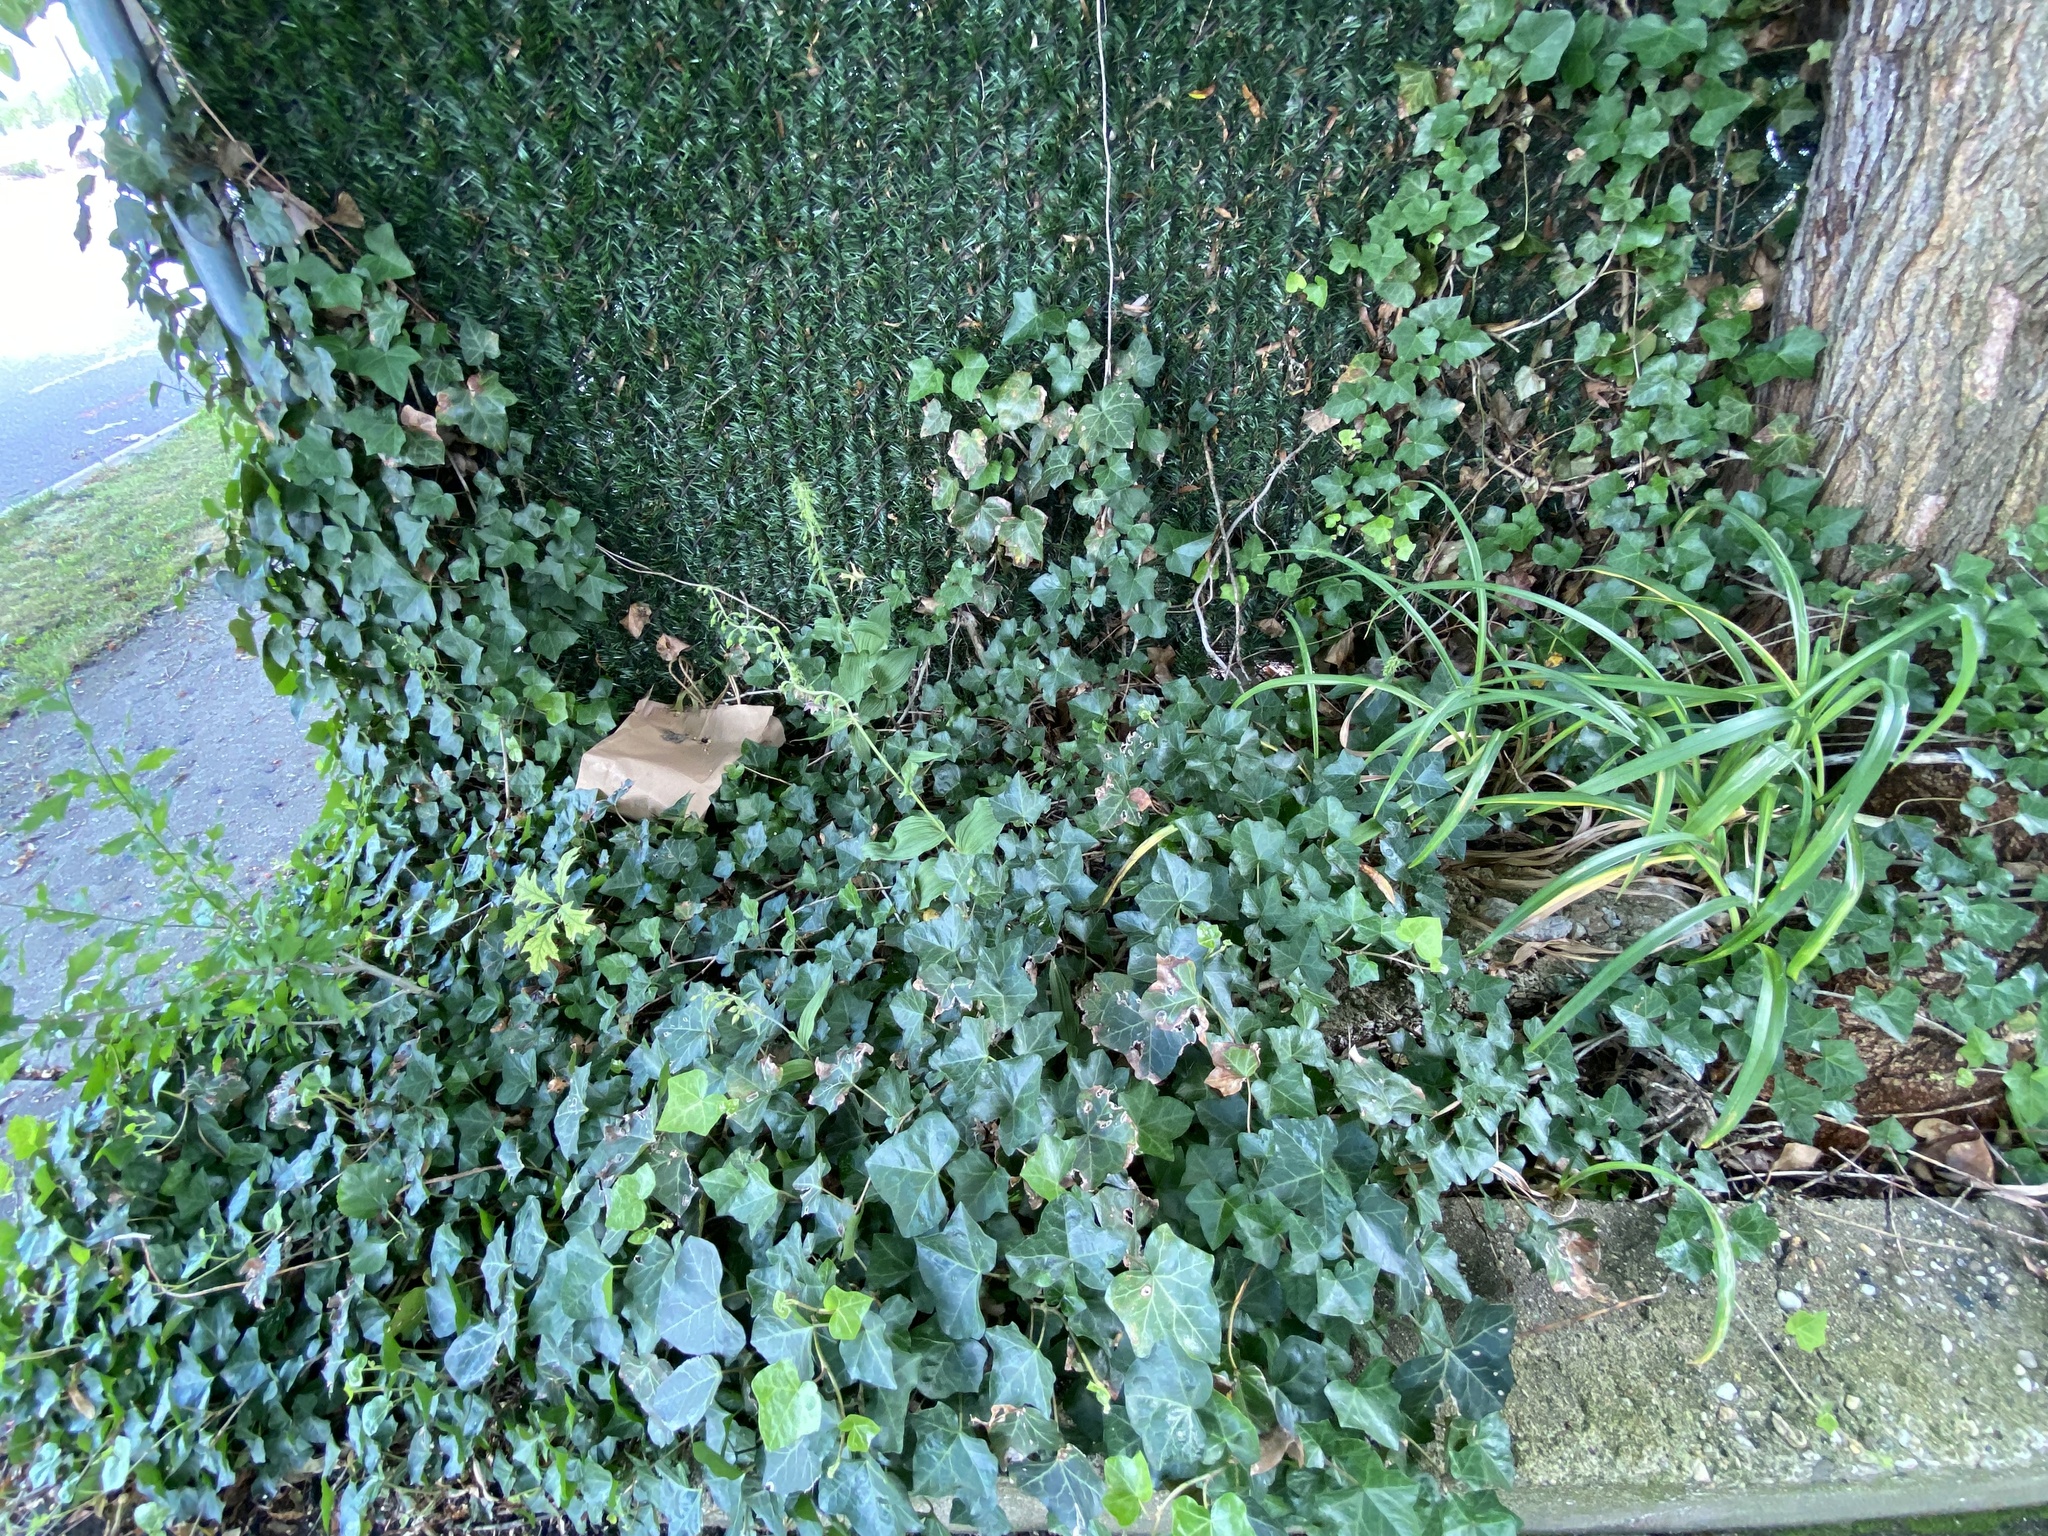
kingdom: Plantae
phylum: Tracheophyta
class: Liliopsida
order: Asparagales
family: Orchidaceae
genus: Epipactis
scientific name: Epipactis helleborine
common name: Broad-leaved helleborine
